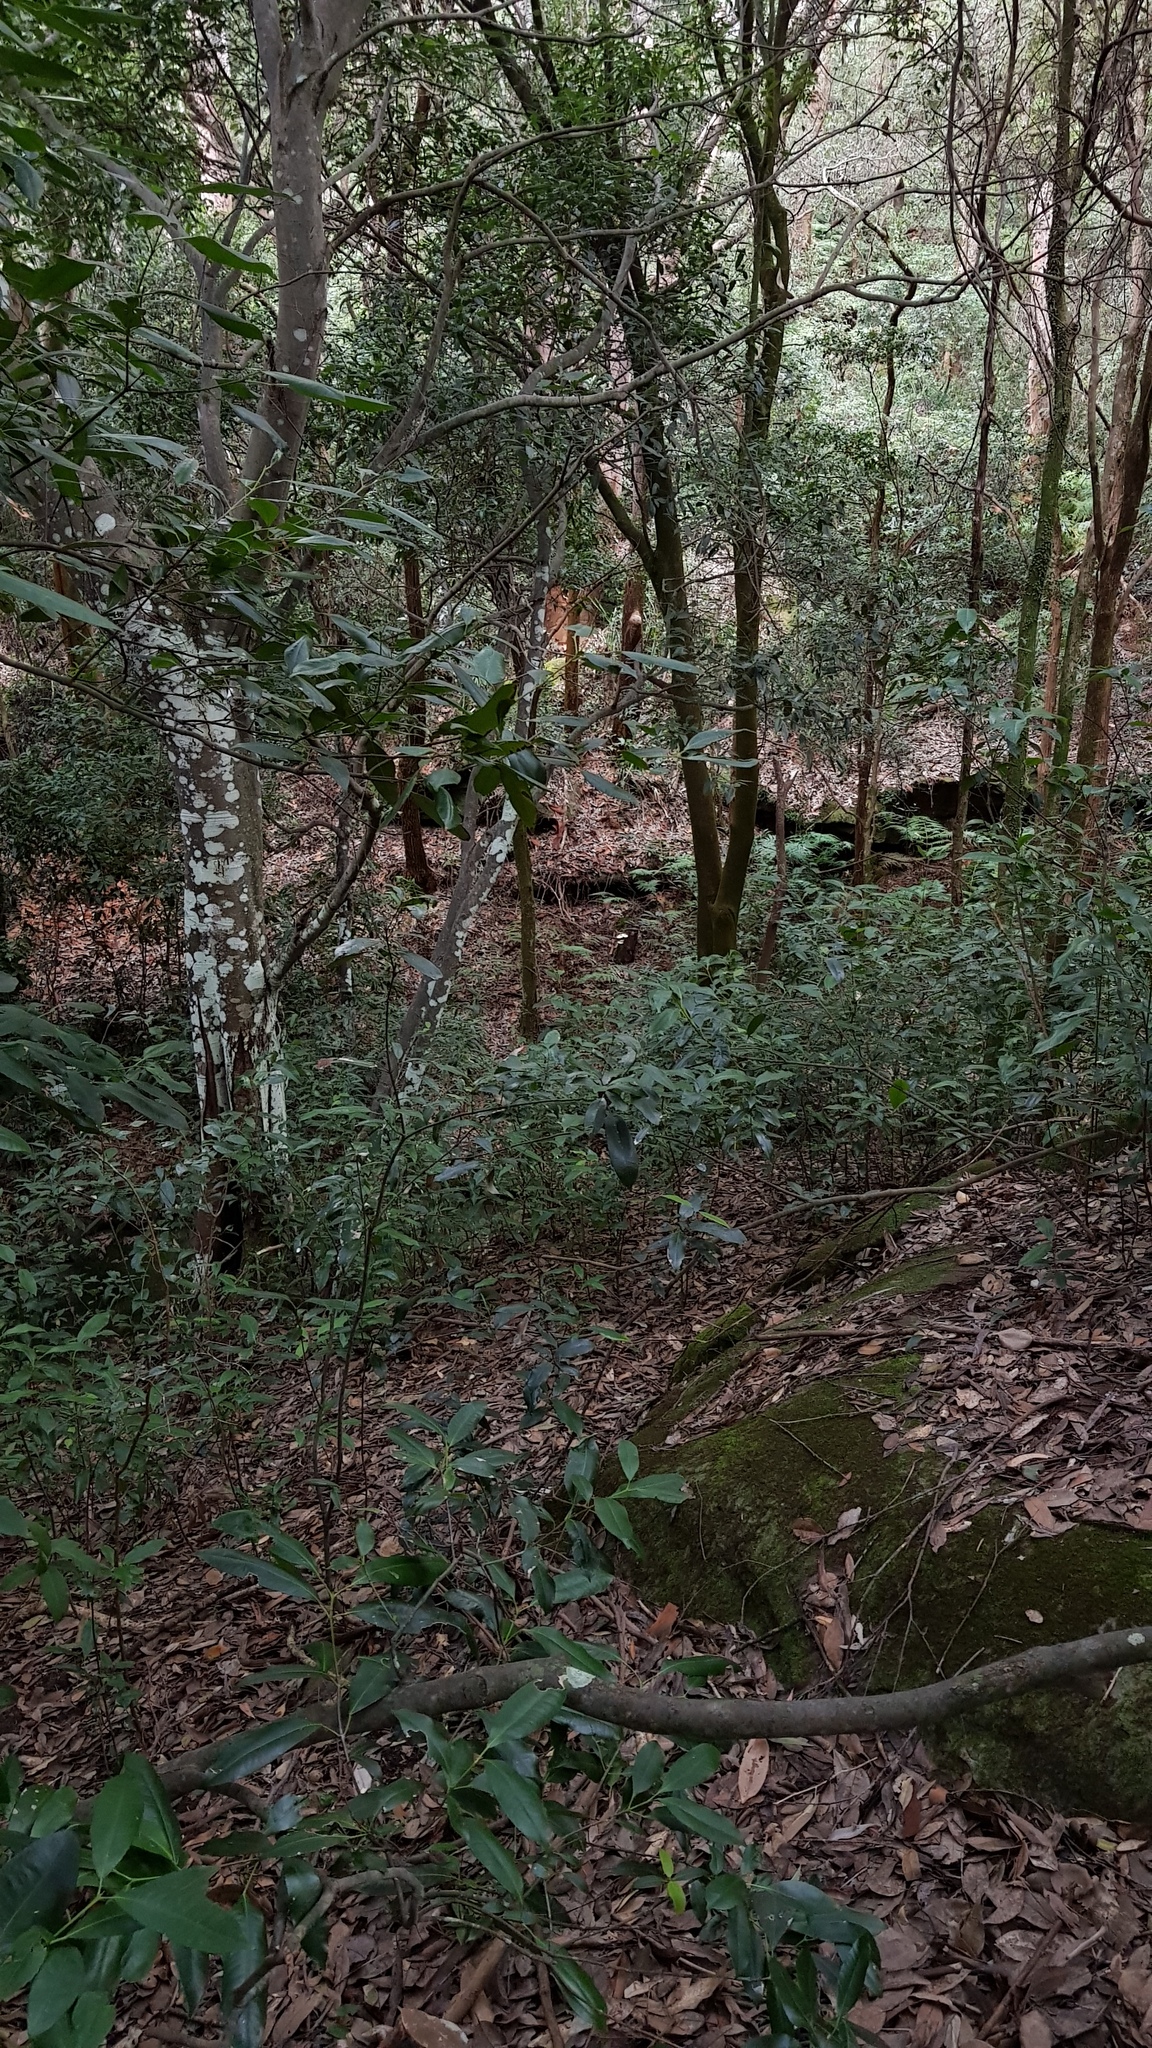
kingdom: Fungi
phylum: Basidiomycota
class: Agaricomycetes
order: Agaricales
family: Omphalotaceae
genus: Omphalotus
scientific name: Omphalotus nidiformis
